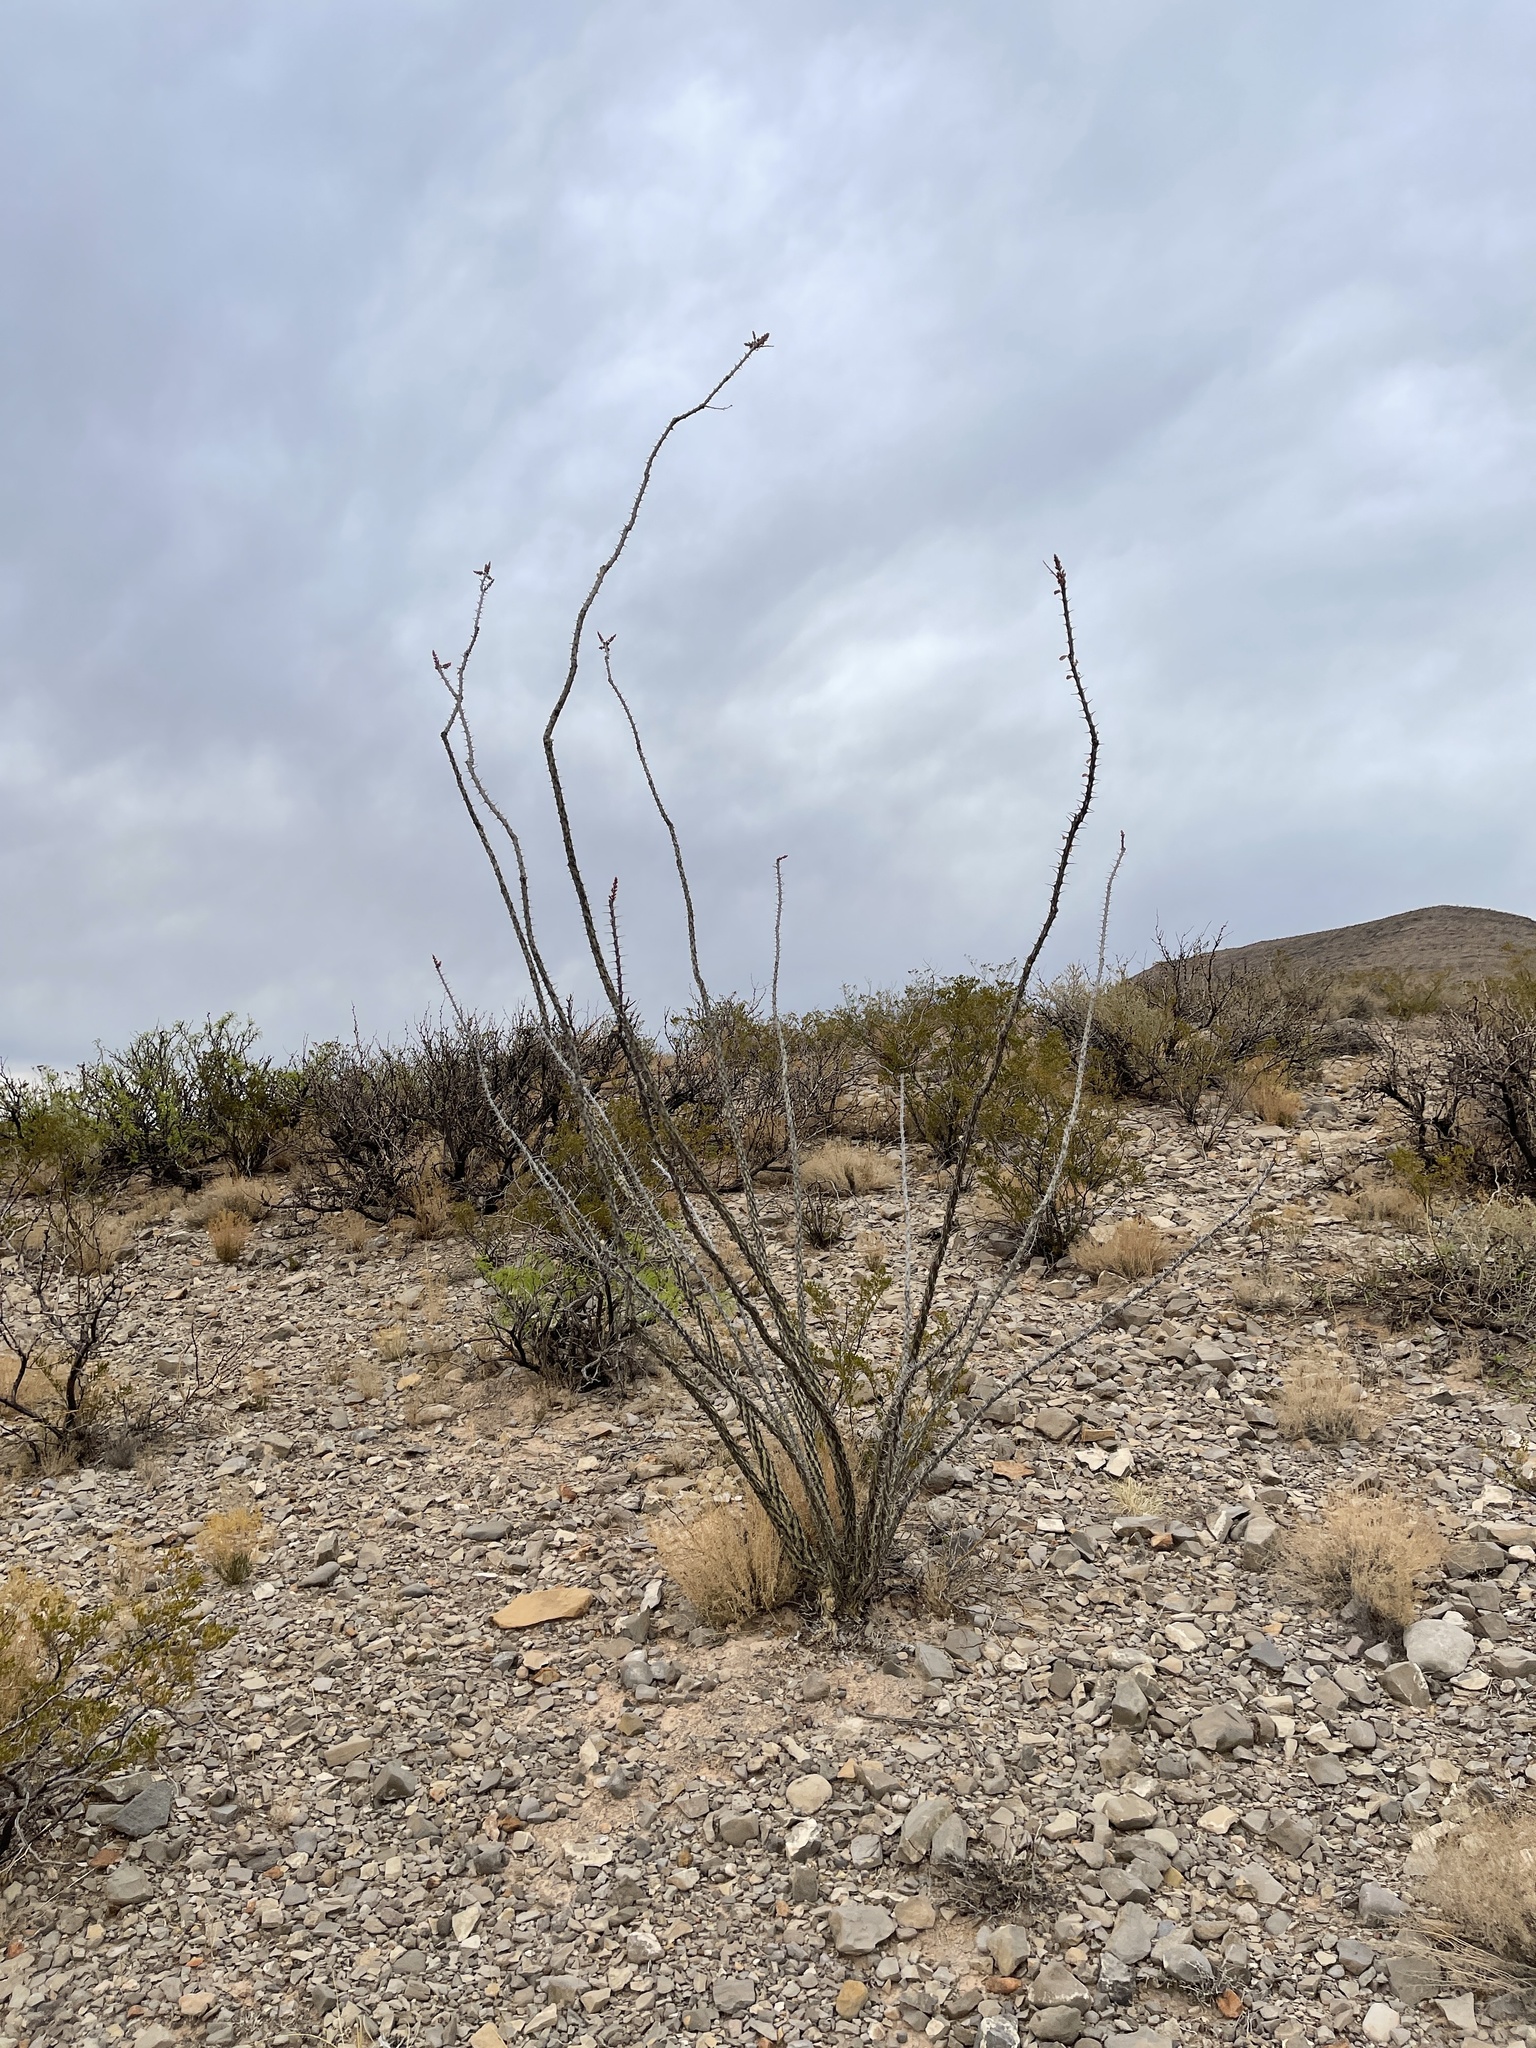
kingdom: Plantae
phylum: Tracheophyta
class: Magnoliopsida
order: Ericales
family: Fouquieriaceae
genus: Fouquieria
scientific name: Fouquieria splendens
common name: Vine-cactus
